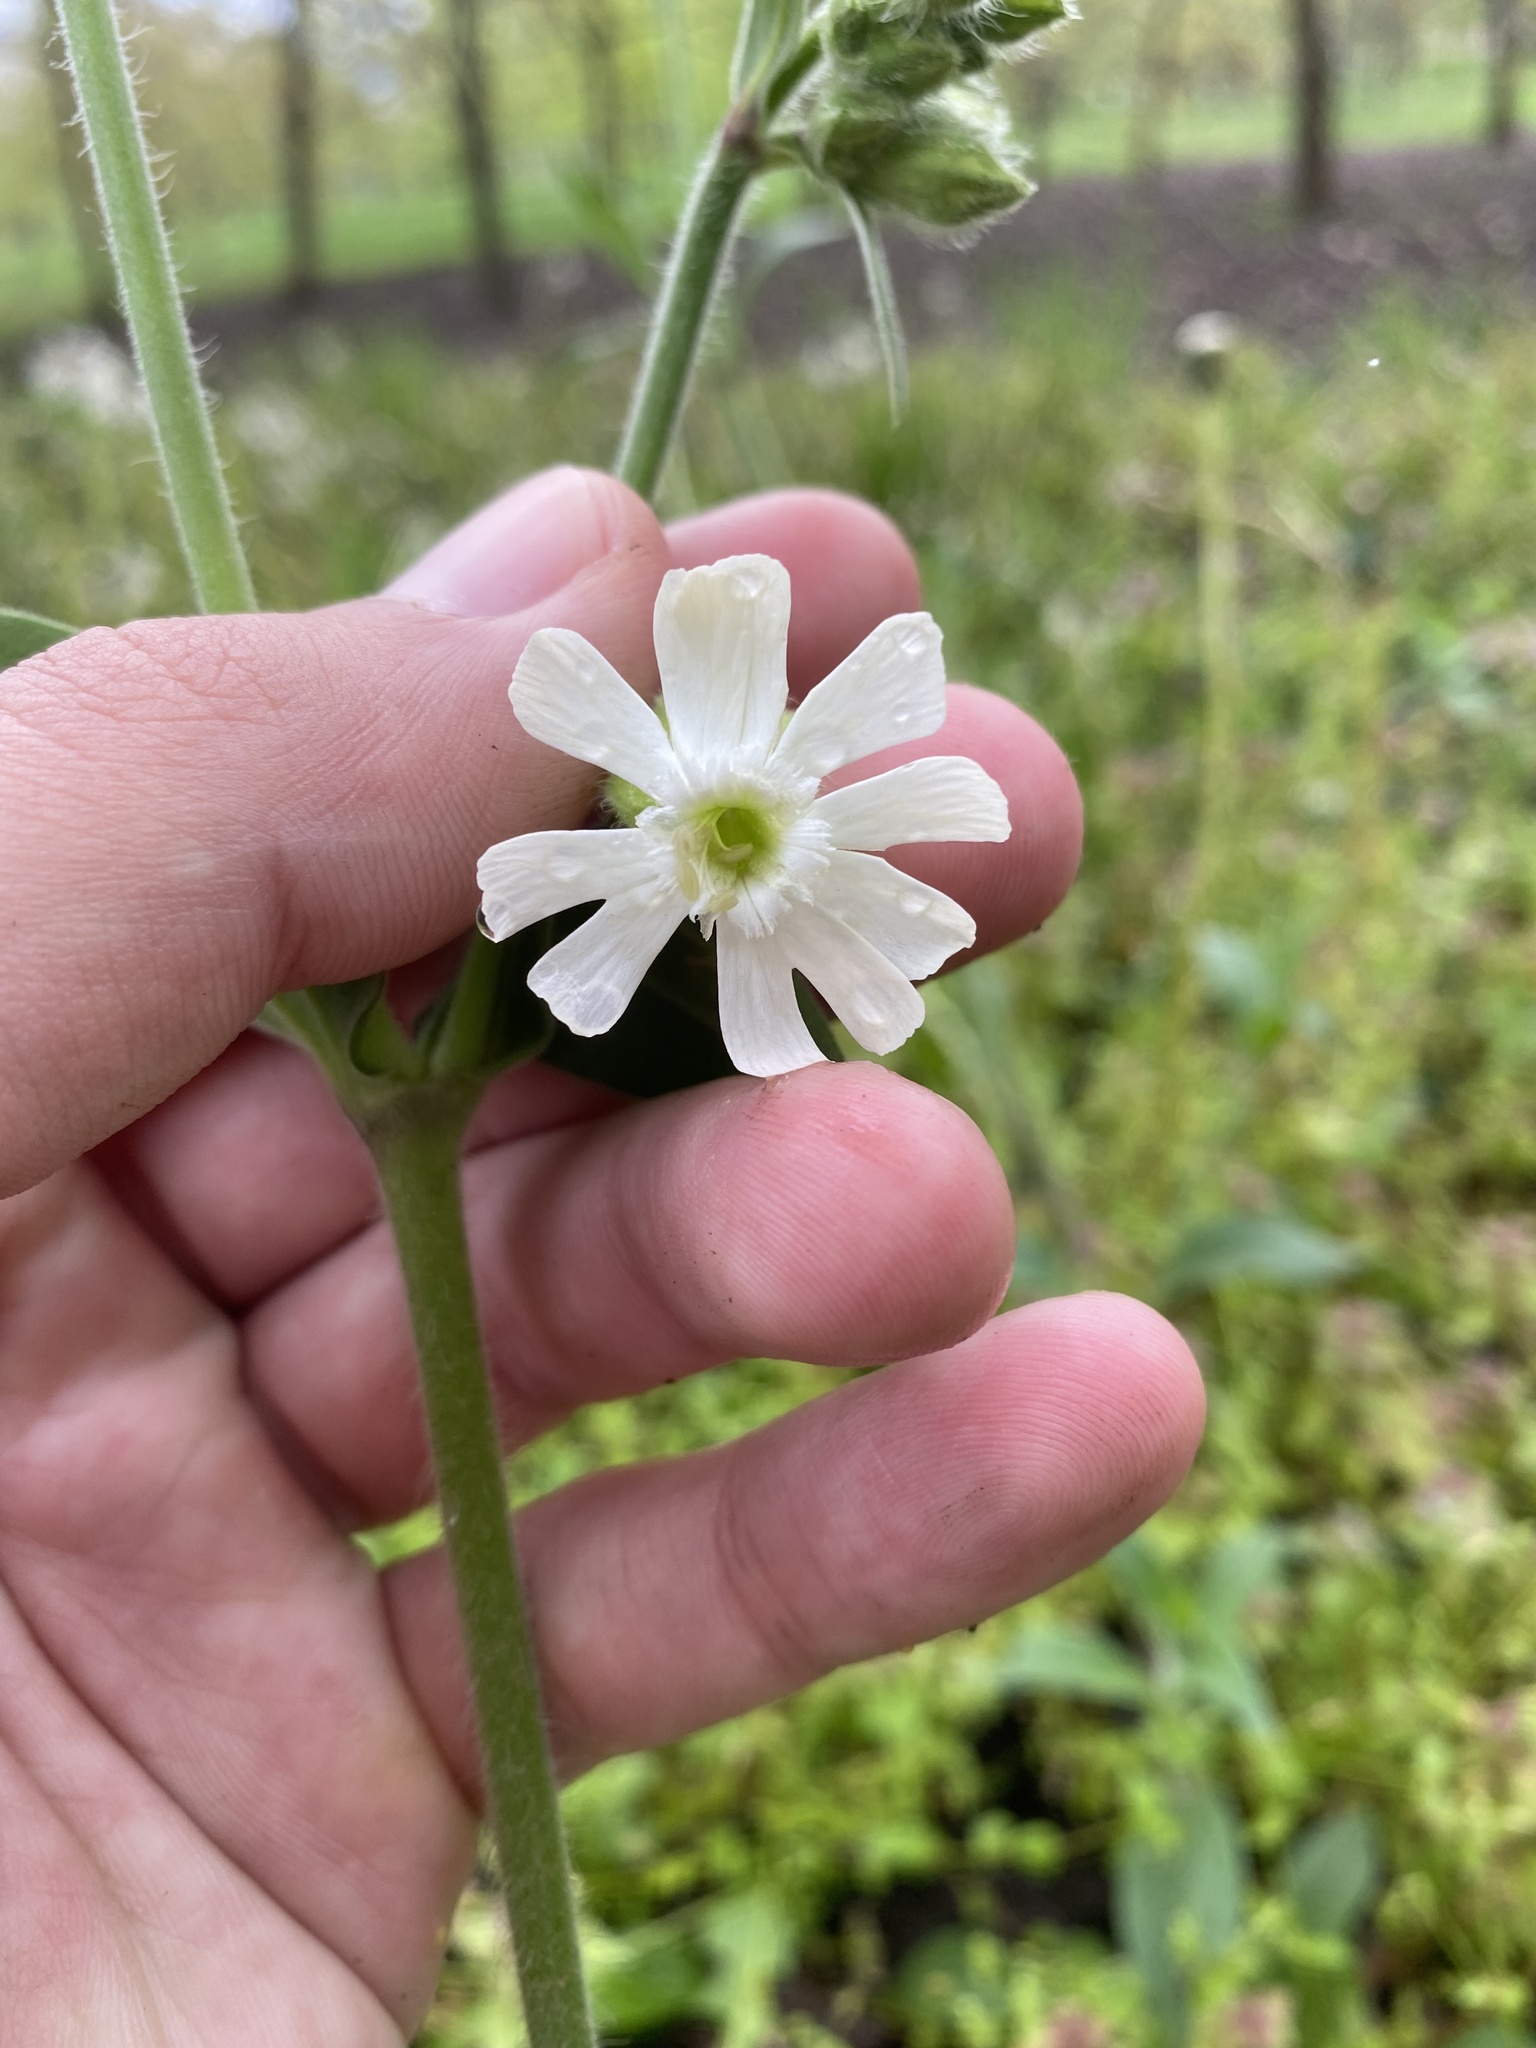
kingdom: Plantae
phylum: Tracheophyta
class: Magnoliopsida
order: Caryophyllales
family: Caryophyllaceae
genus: Silene
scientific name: Silene latifolia
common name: White campion
